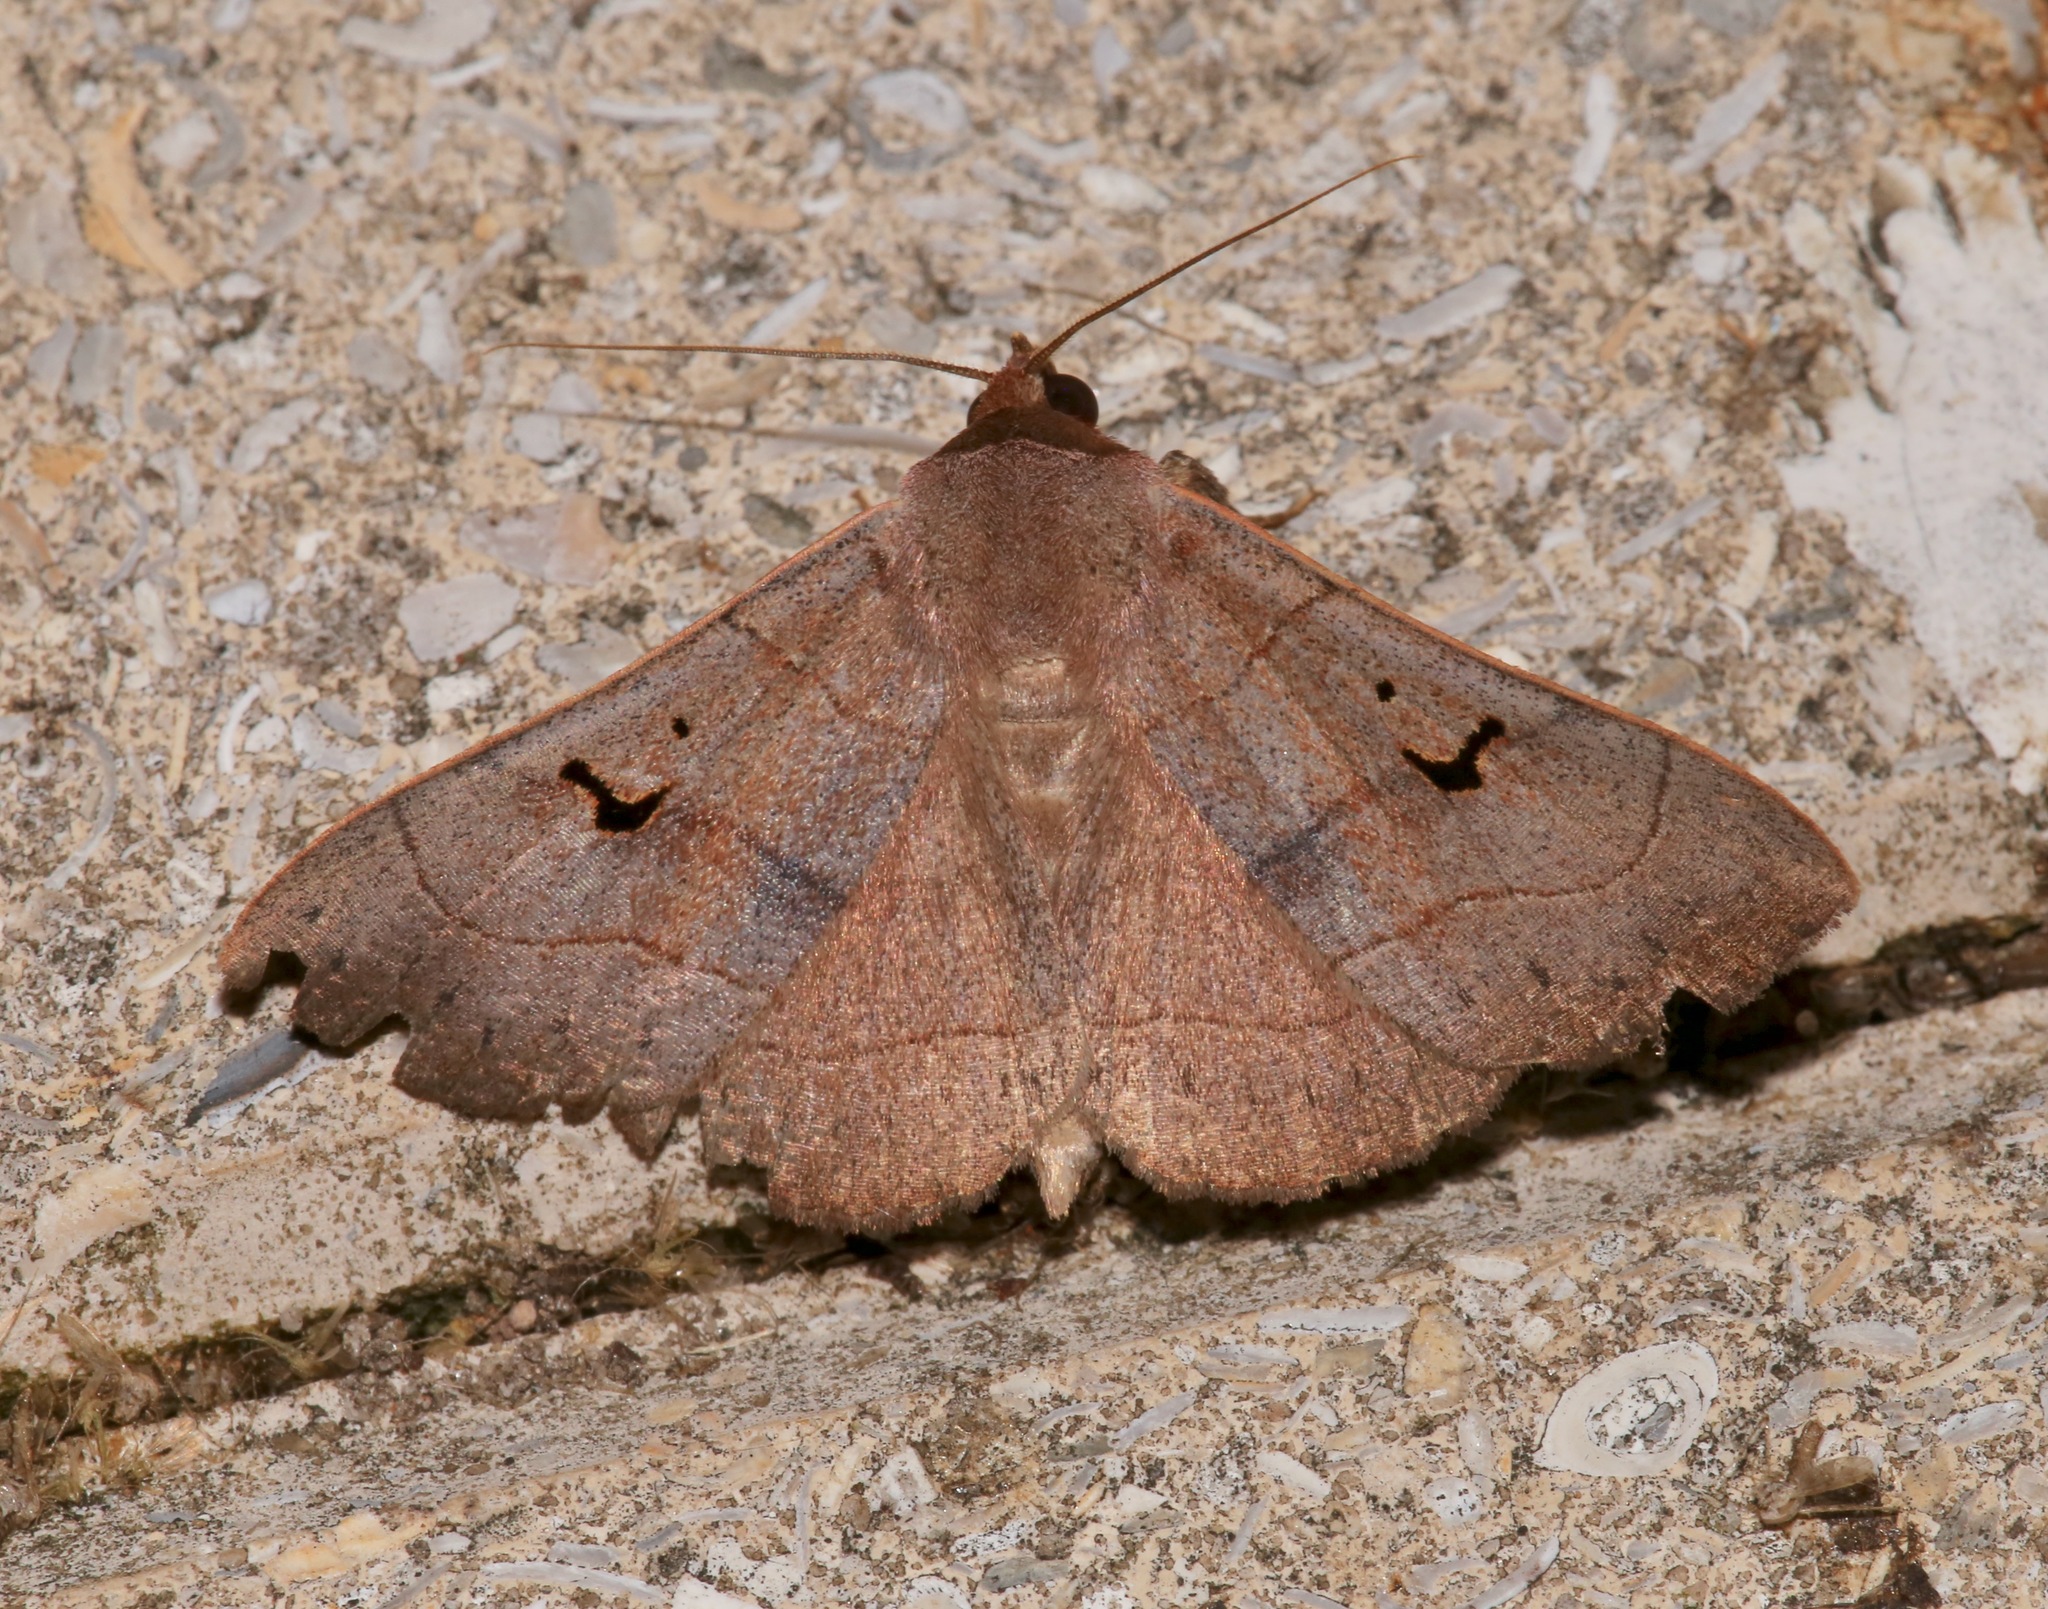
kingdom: Animalia
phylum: Arthropoda
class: Insecta
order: Lepidoptera
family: Erebidae
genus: Panopoda
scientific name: Panopoda carneicosta
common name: Brown panopoda moth
